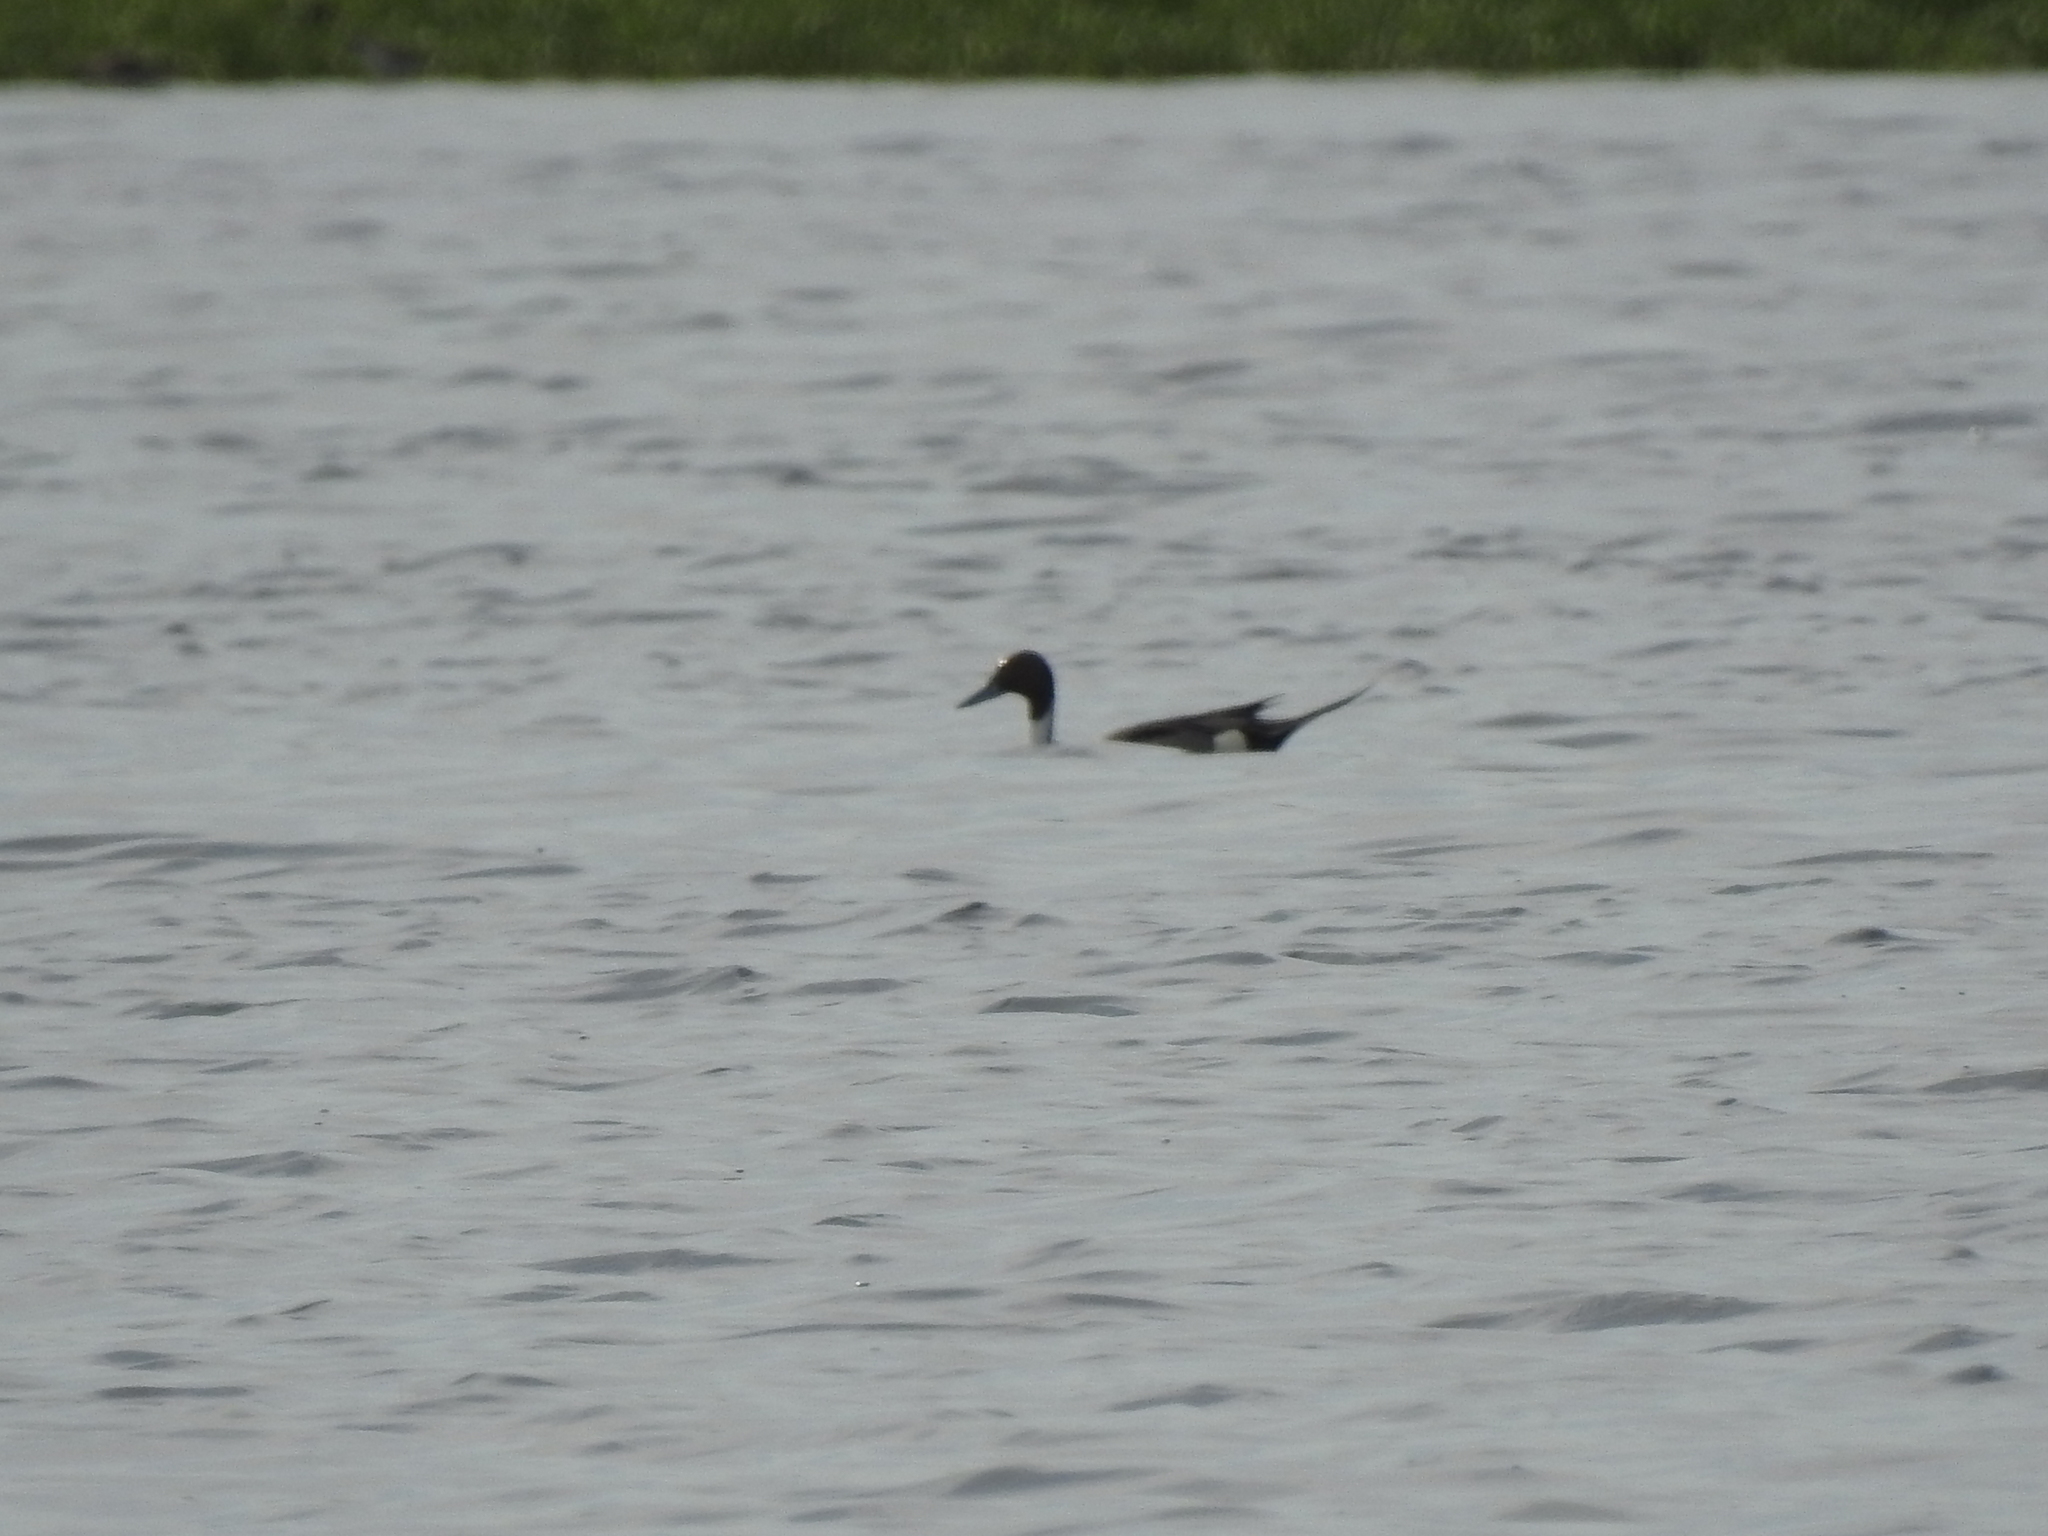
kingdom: Animalia
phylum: Chordata
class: Aves
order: Anseriformes
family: Anatidae
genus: Anas
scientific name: Anas acuta
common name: Northern pintail
